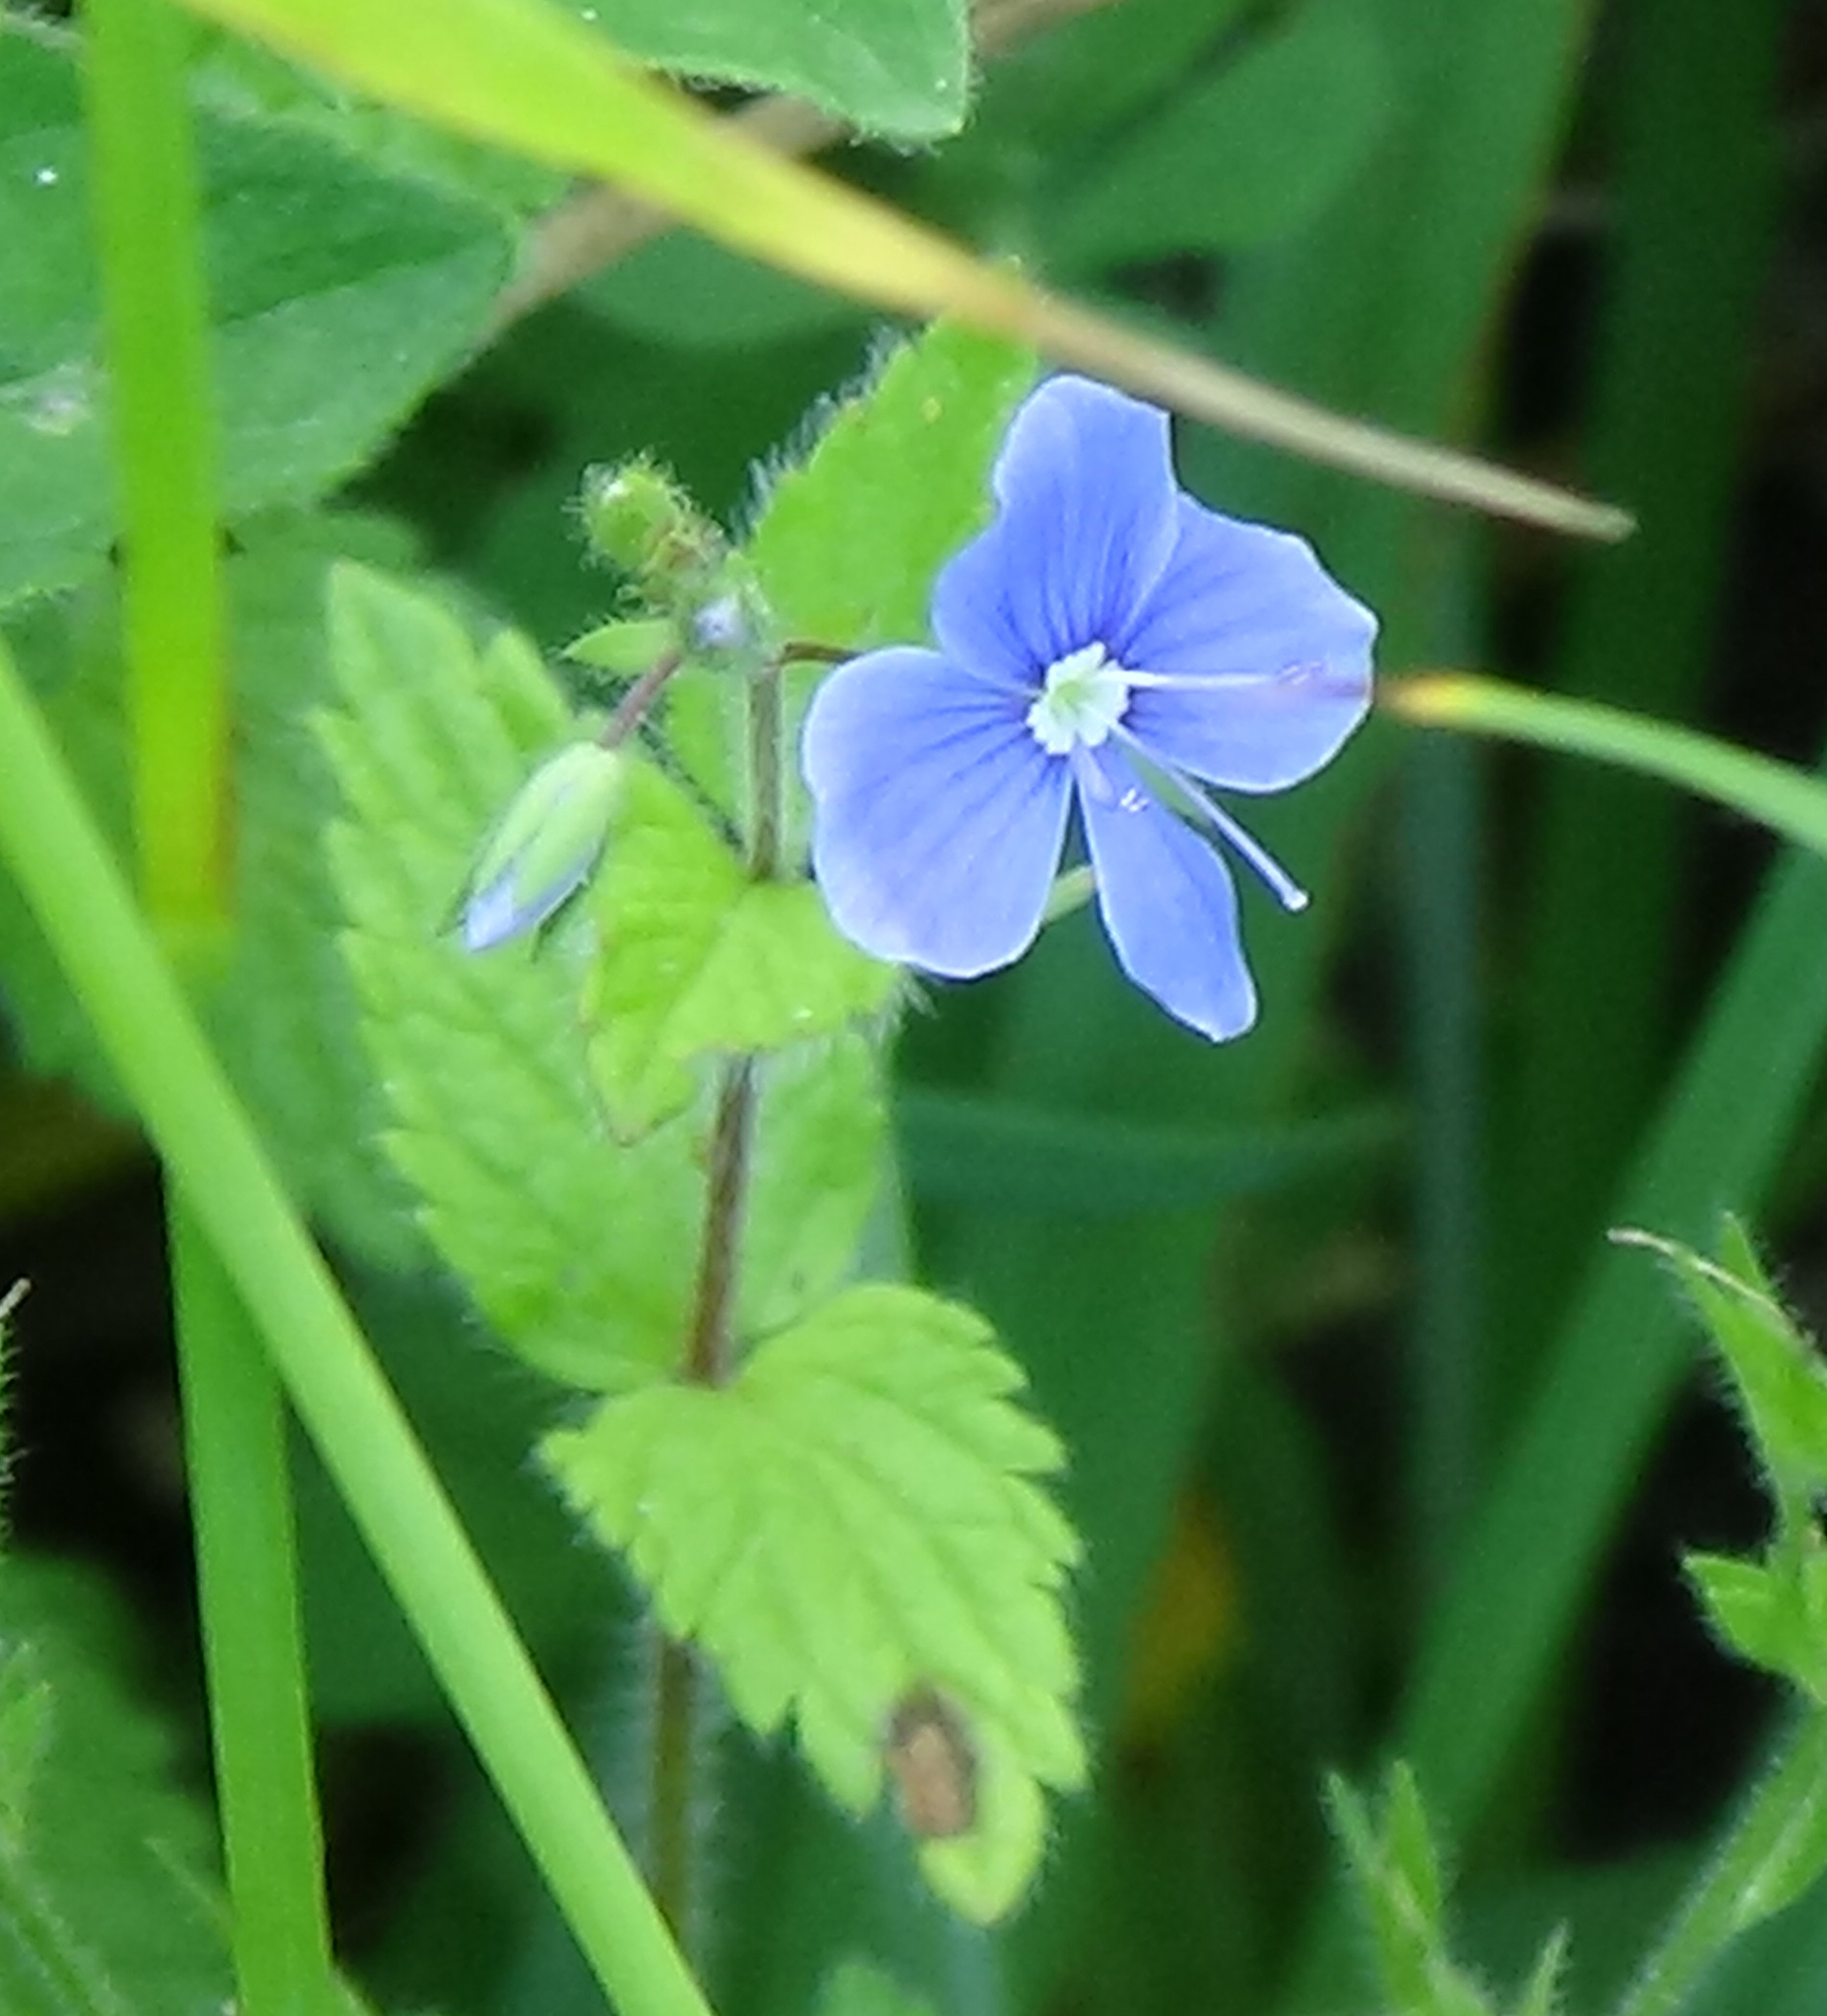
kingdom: Plantae
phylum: Tracheophyta
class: Magnoliopsida
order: Lamiales
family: Plantaginaceae
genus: Veronica
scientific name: Veronica chamaedrys
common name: Germander speedwell
